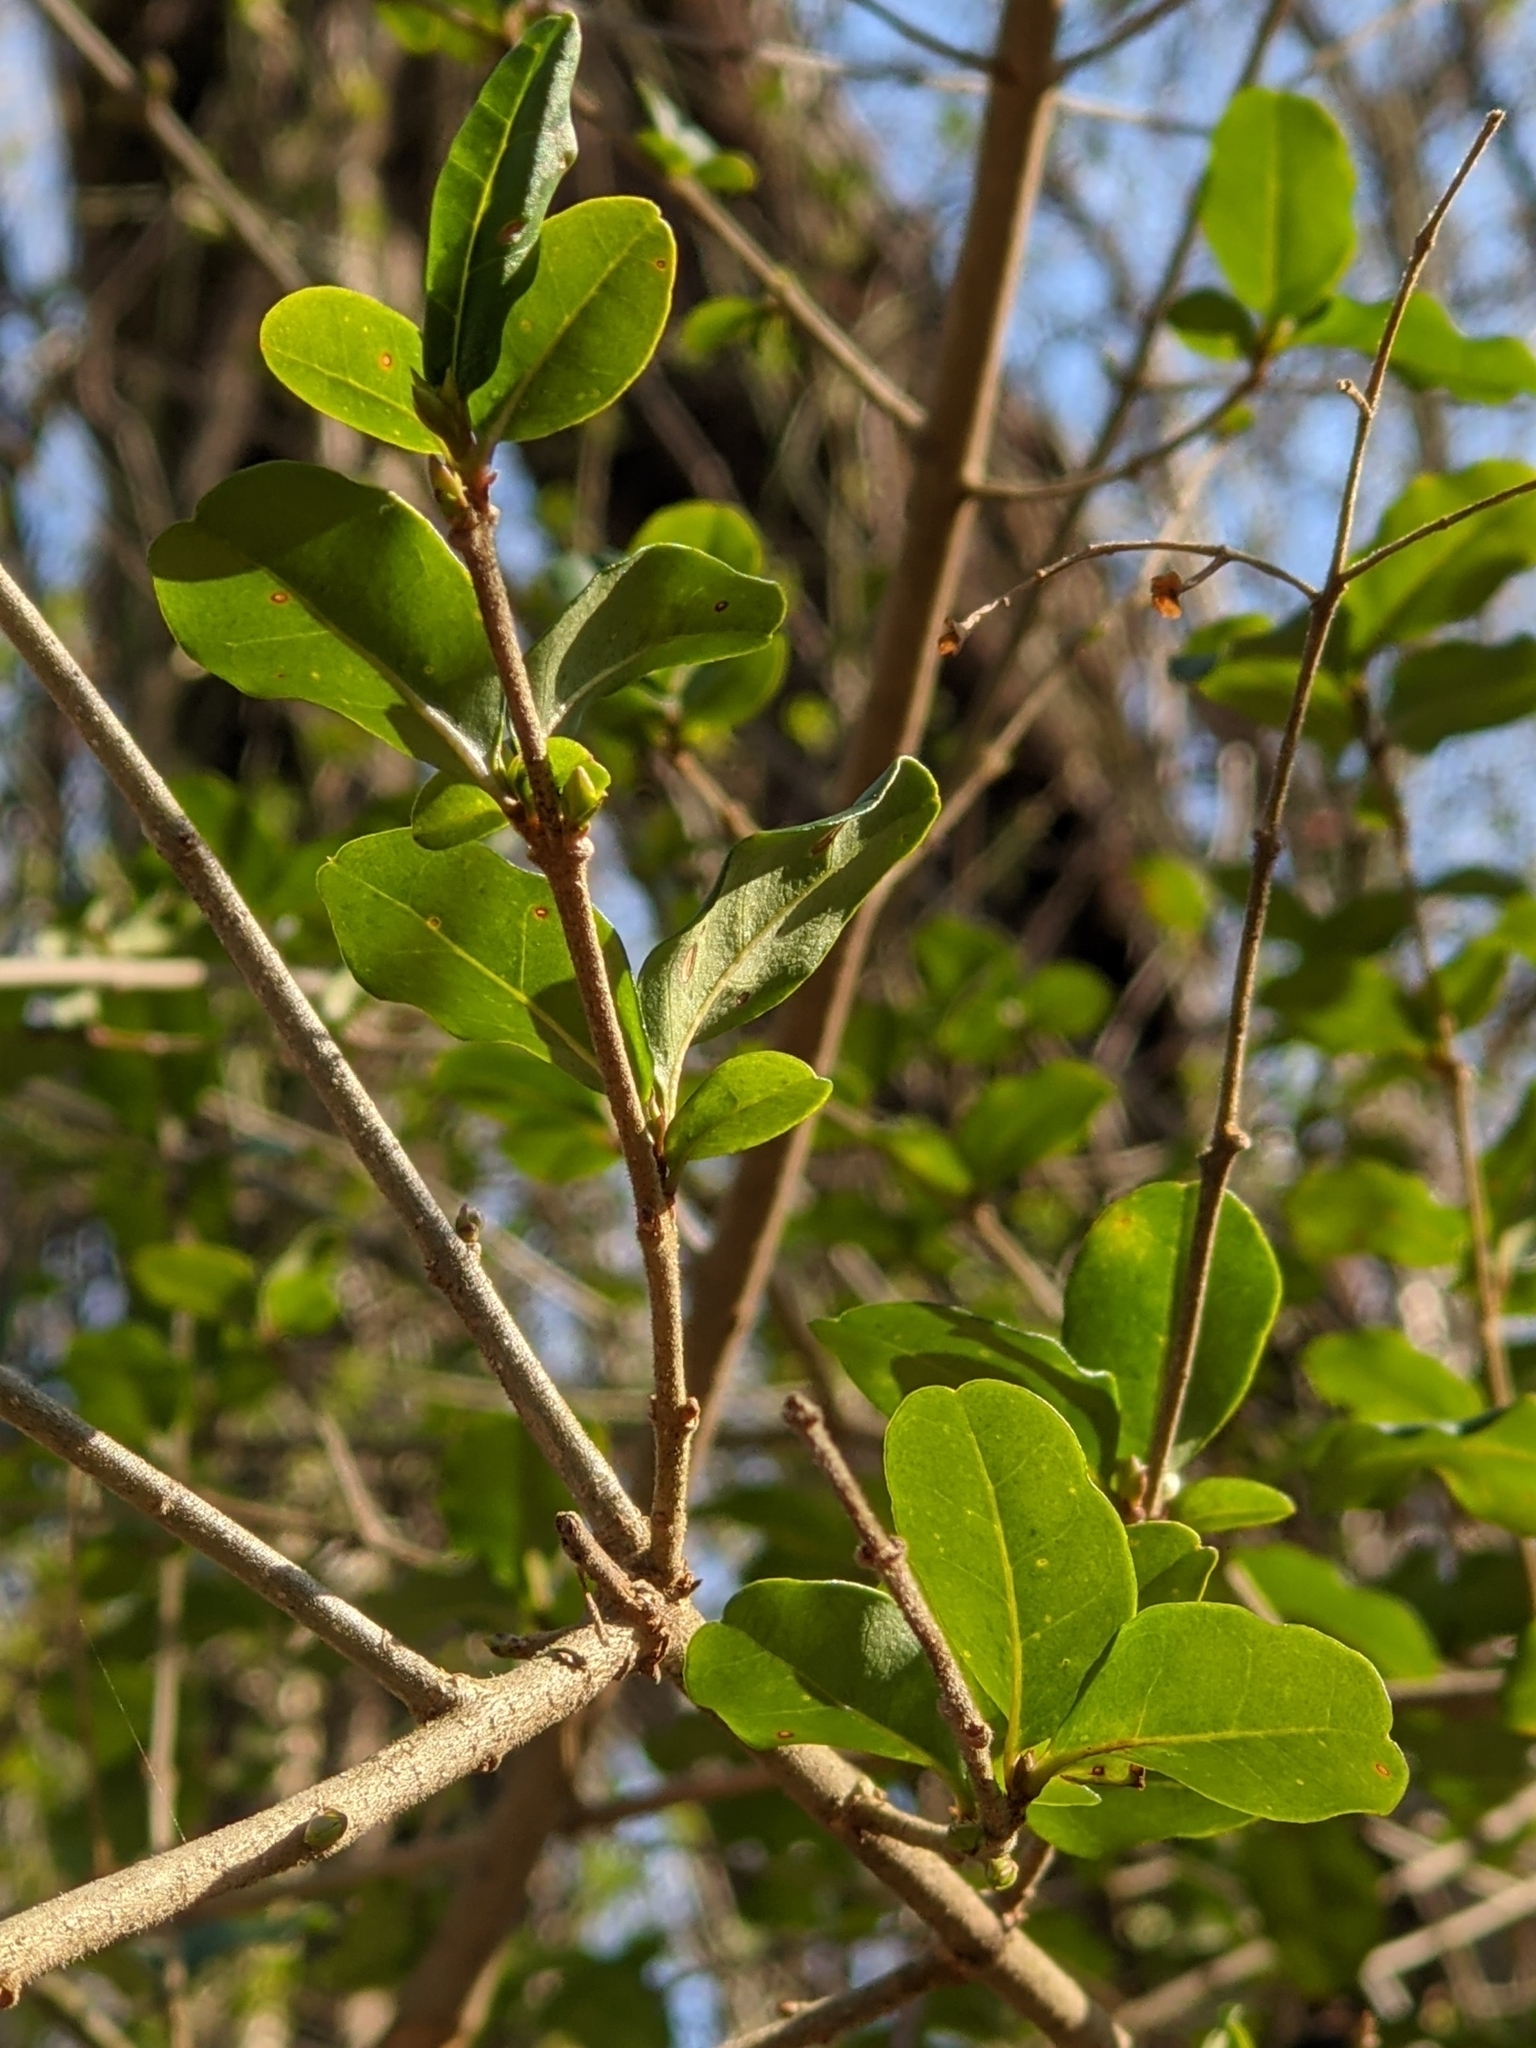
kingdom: Plantae
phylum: Tracheophyta
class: Magnoliopsida
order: Lamiales
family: Oleaceae
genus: Ligustrum
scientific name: Ligustrum sinense
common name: Chinese privet
